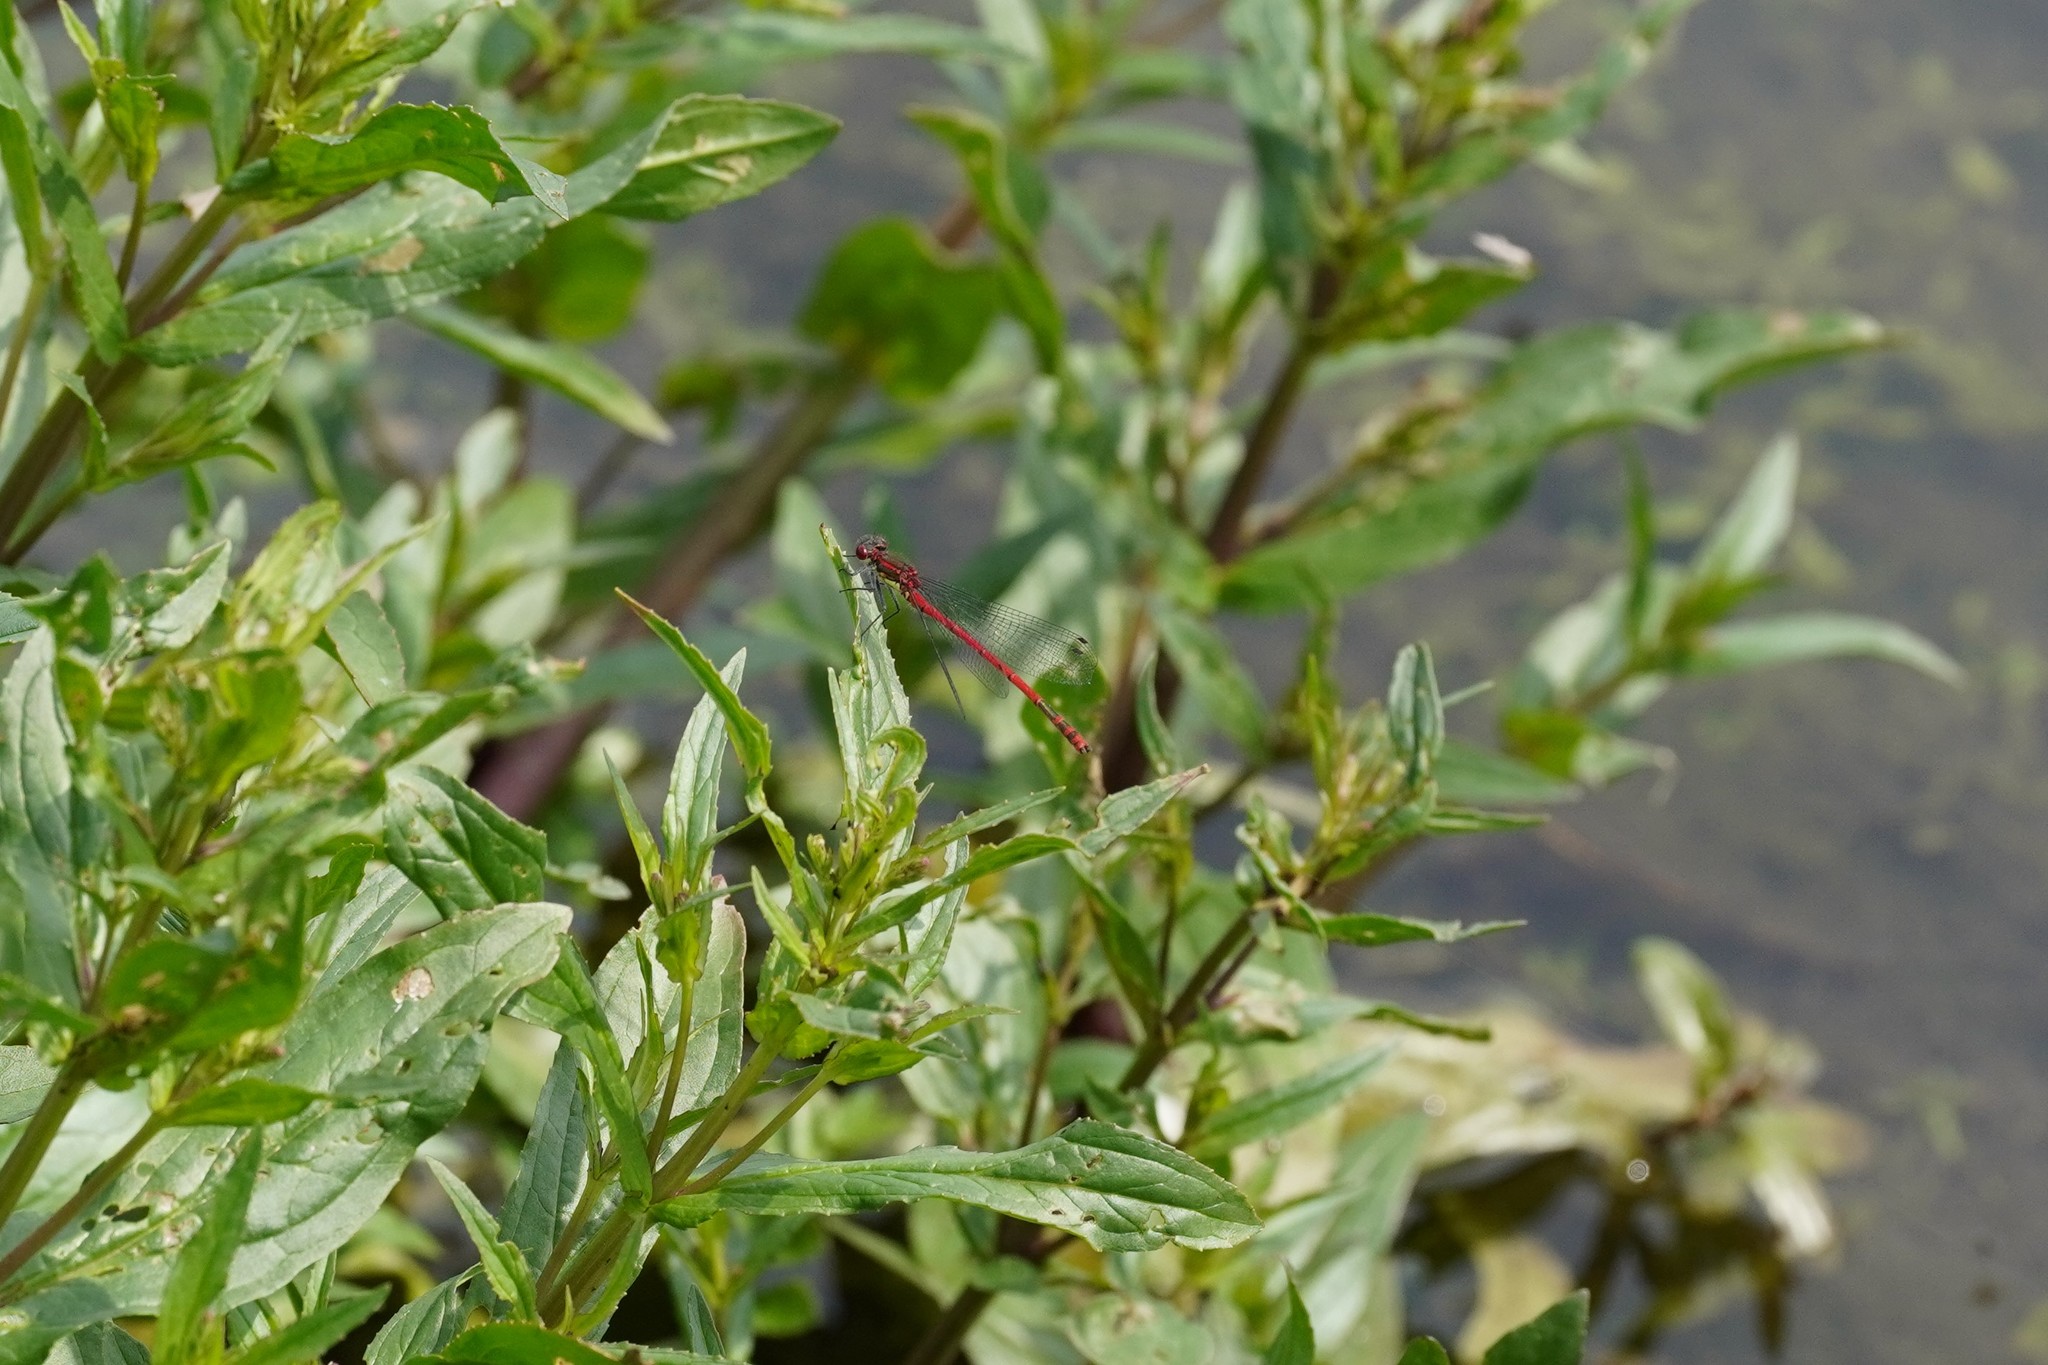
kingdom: Animalia
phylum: Arthropoda
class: Insecta
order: Odonata
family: Coenagrionidae
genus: Pyrrhosoma
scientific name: Pyrrhosoma nymphula
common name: Large red damsel
